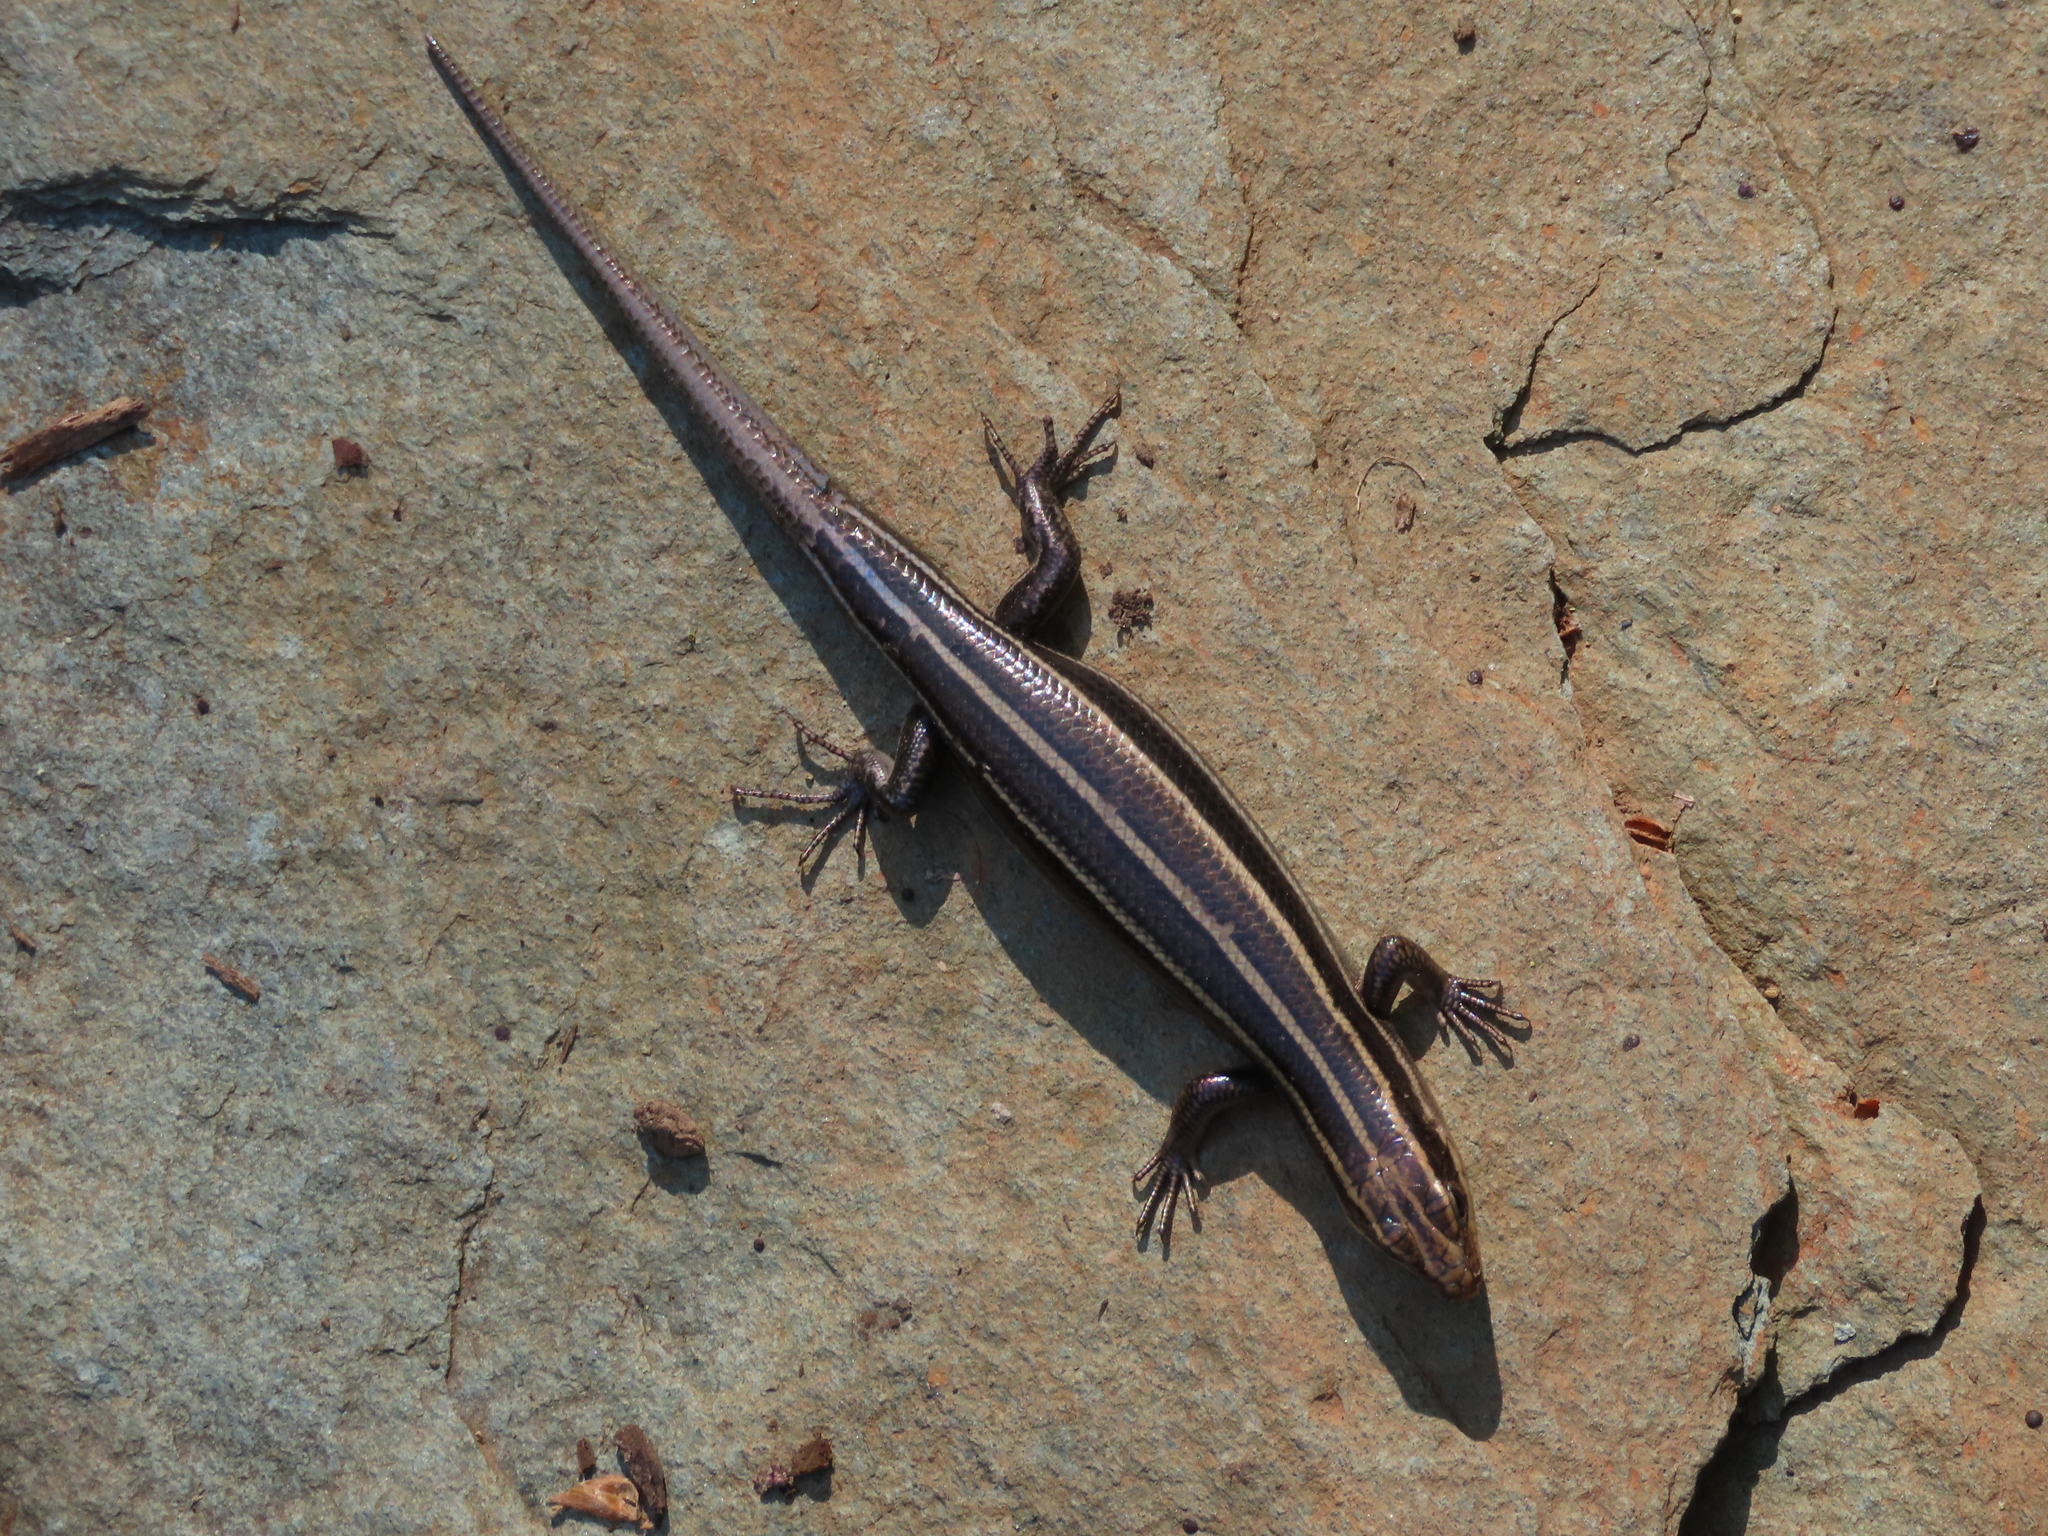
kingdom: Animalia
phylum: Chordata
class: Squamata
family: Scincidae
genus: Plestiodon
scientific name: Plestiodon fasciatus
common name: Five-lined skink
